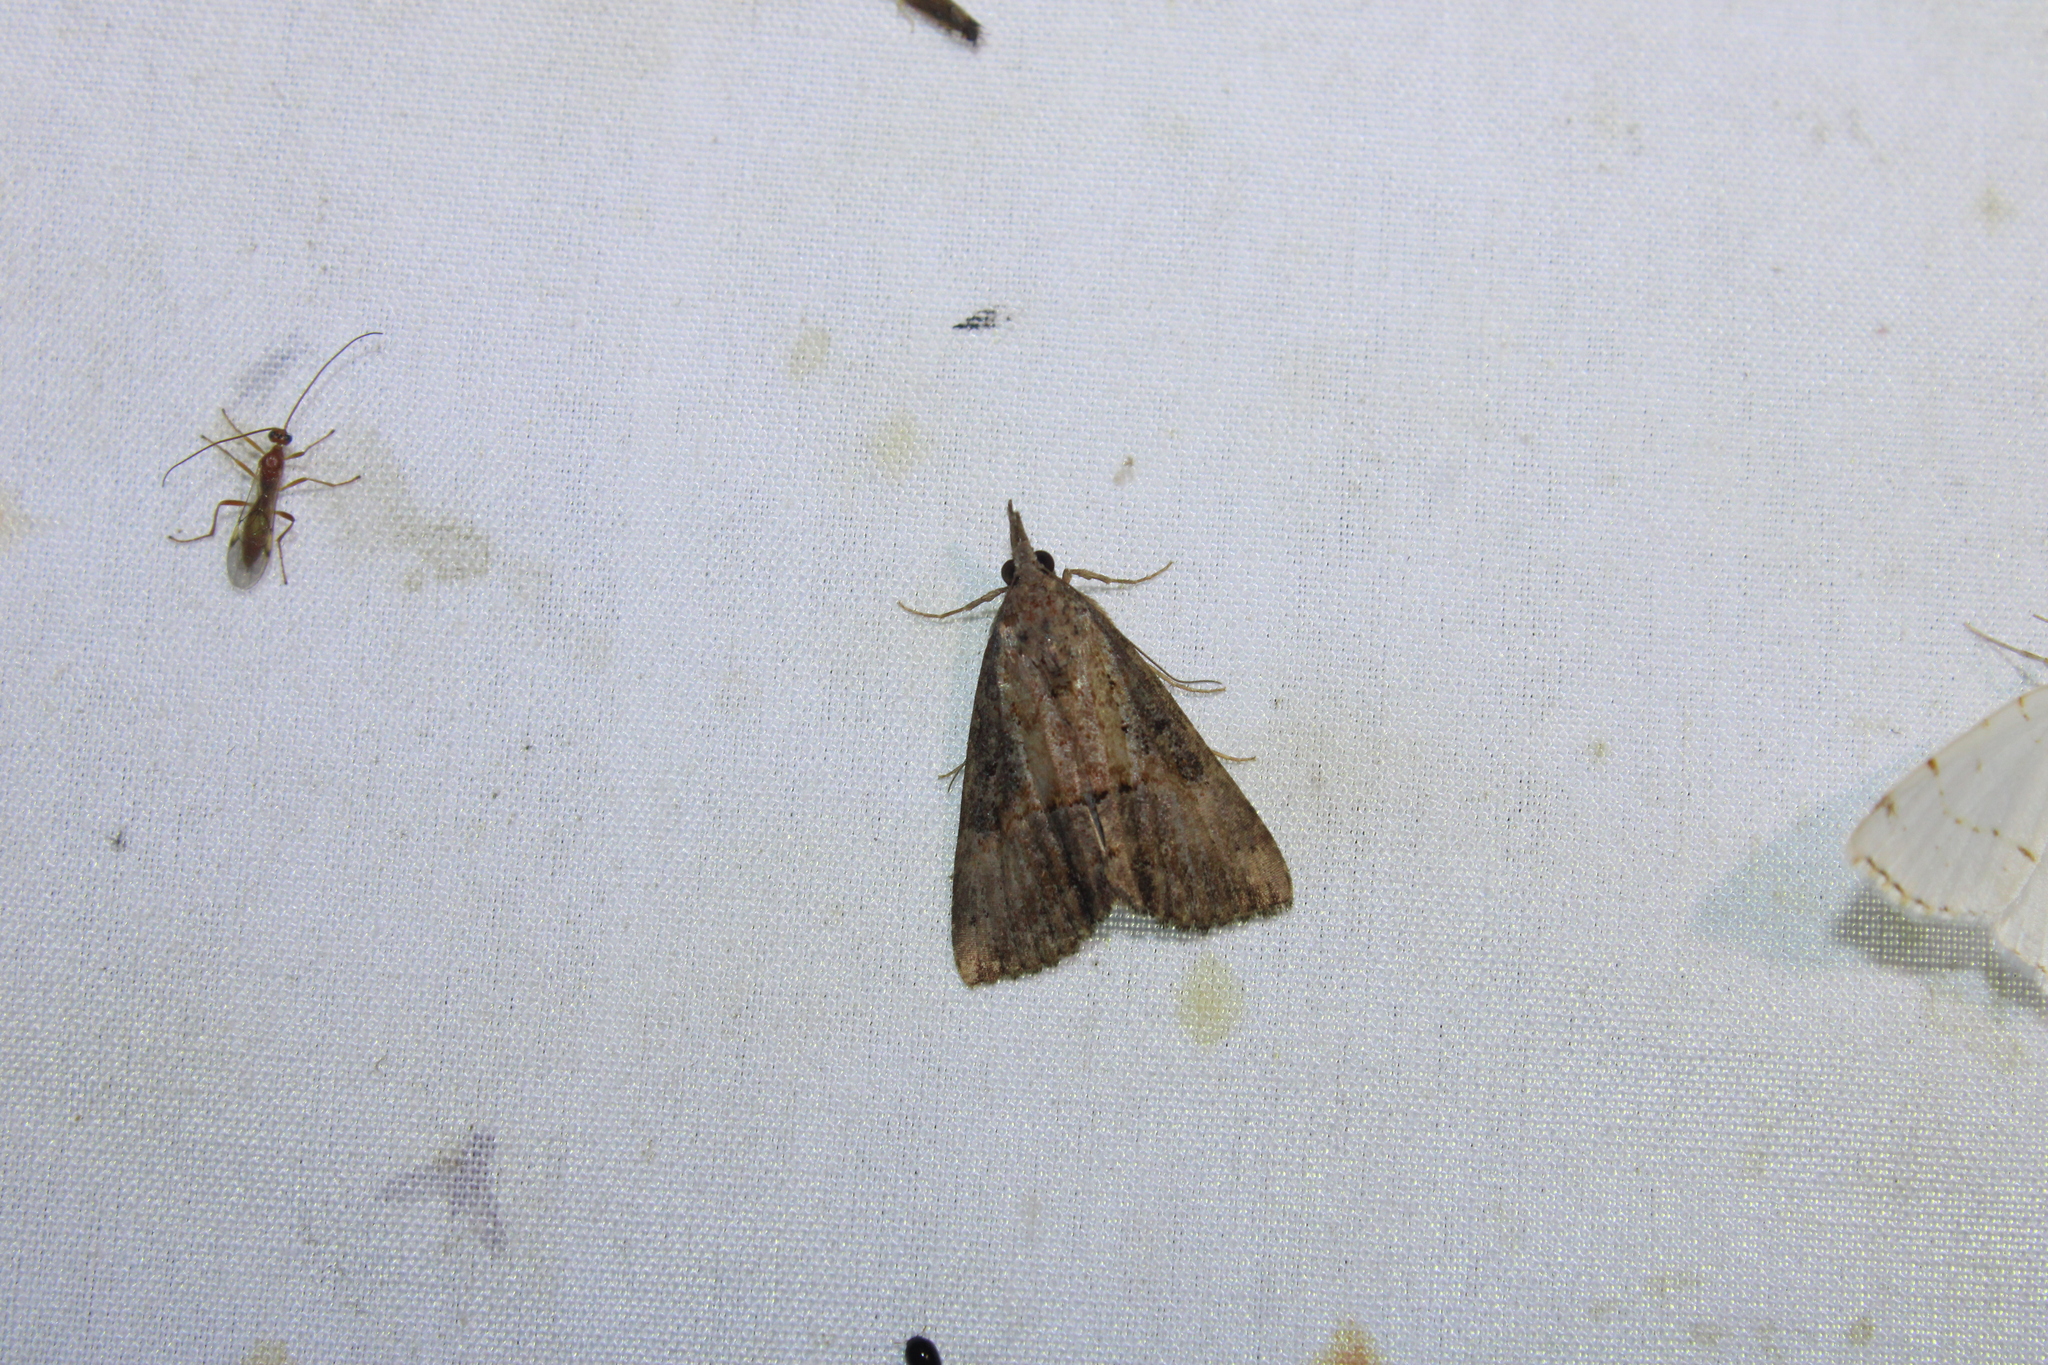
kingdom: Animalia
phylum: Arthropoda
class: Insecta
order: Lepidoptera
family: Erebidae
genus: Hypena
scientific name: Hypena scabra
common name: Green cloverworm
